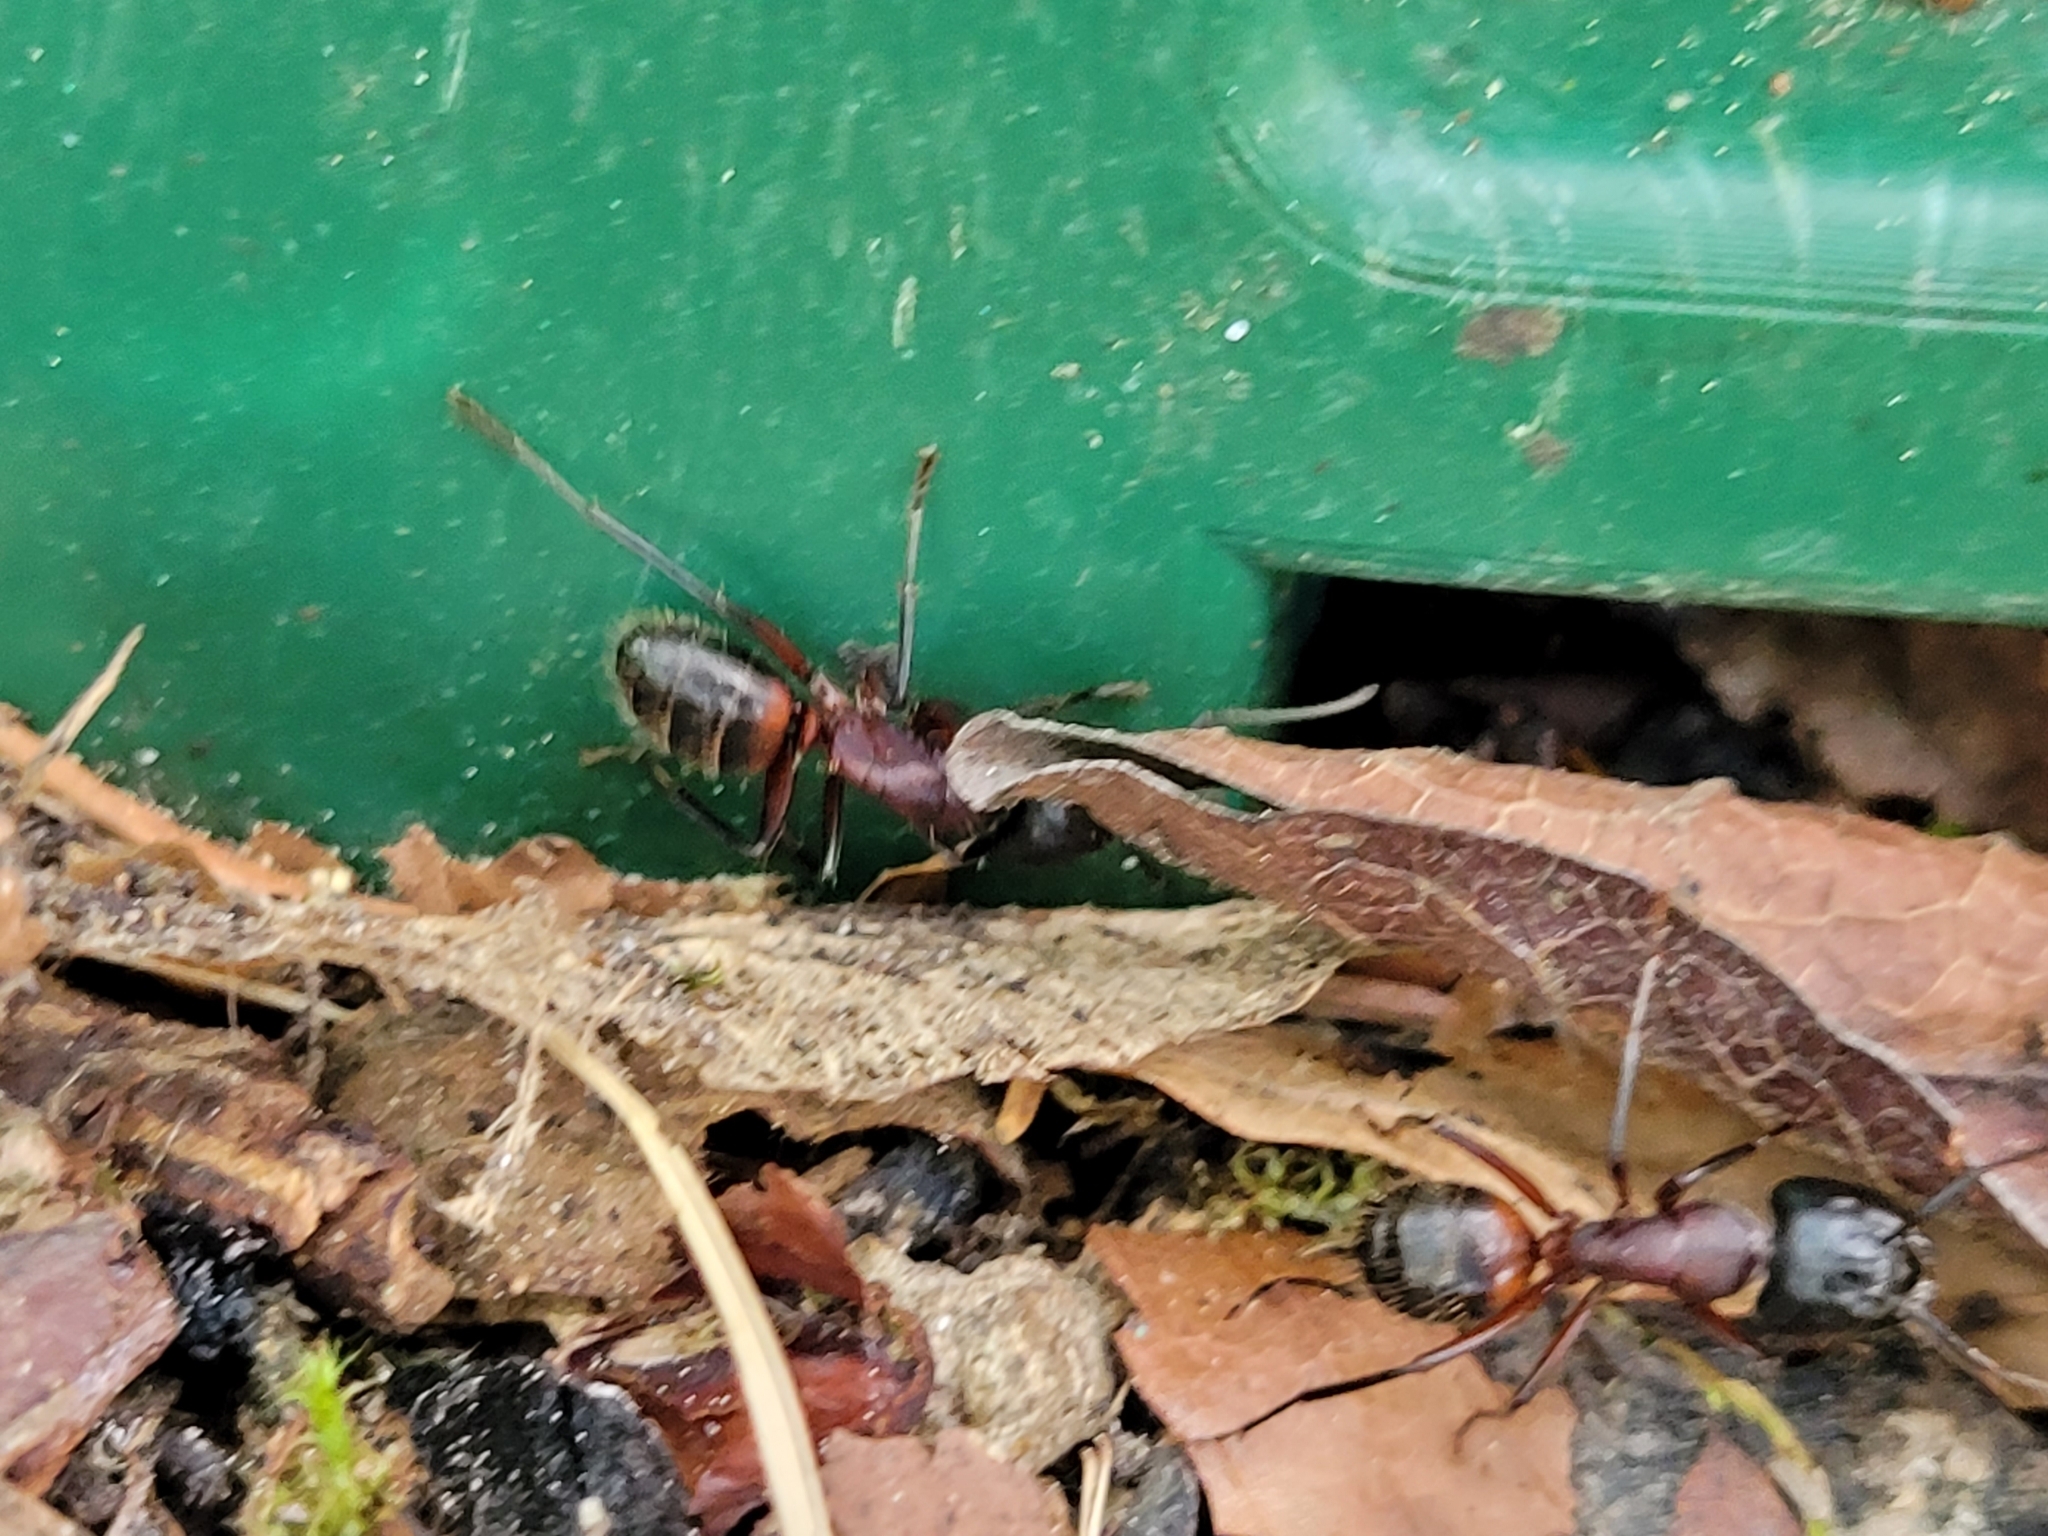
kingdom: Animalia
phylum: Arthropoda
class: Insecta
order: Hymenoptera
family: Formicidae
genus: Camponotus
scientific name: Camponotus ligniperdus
